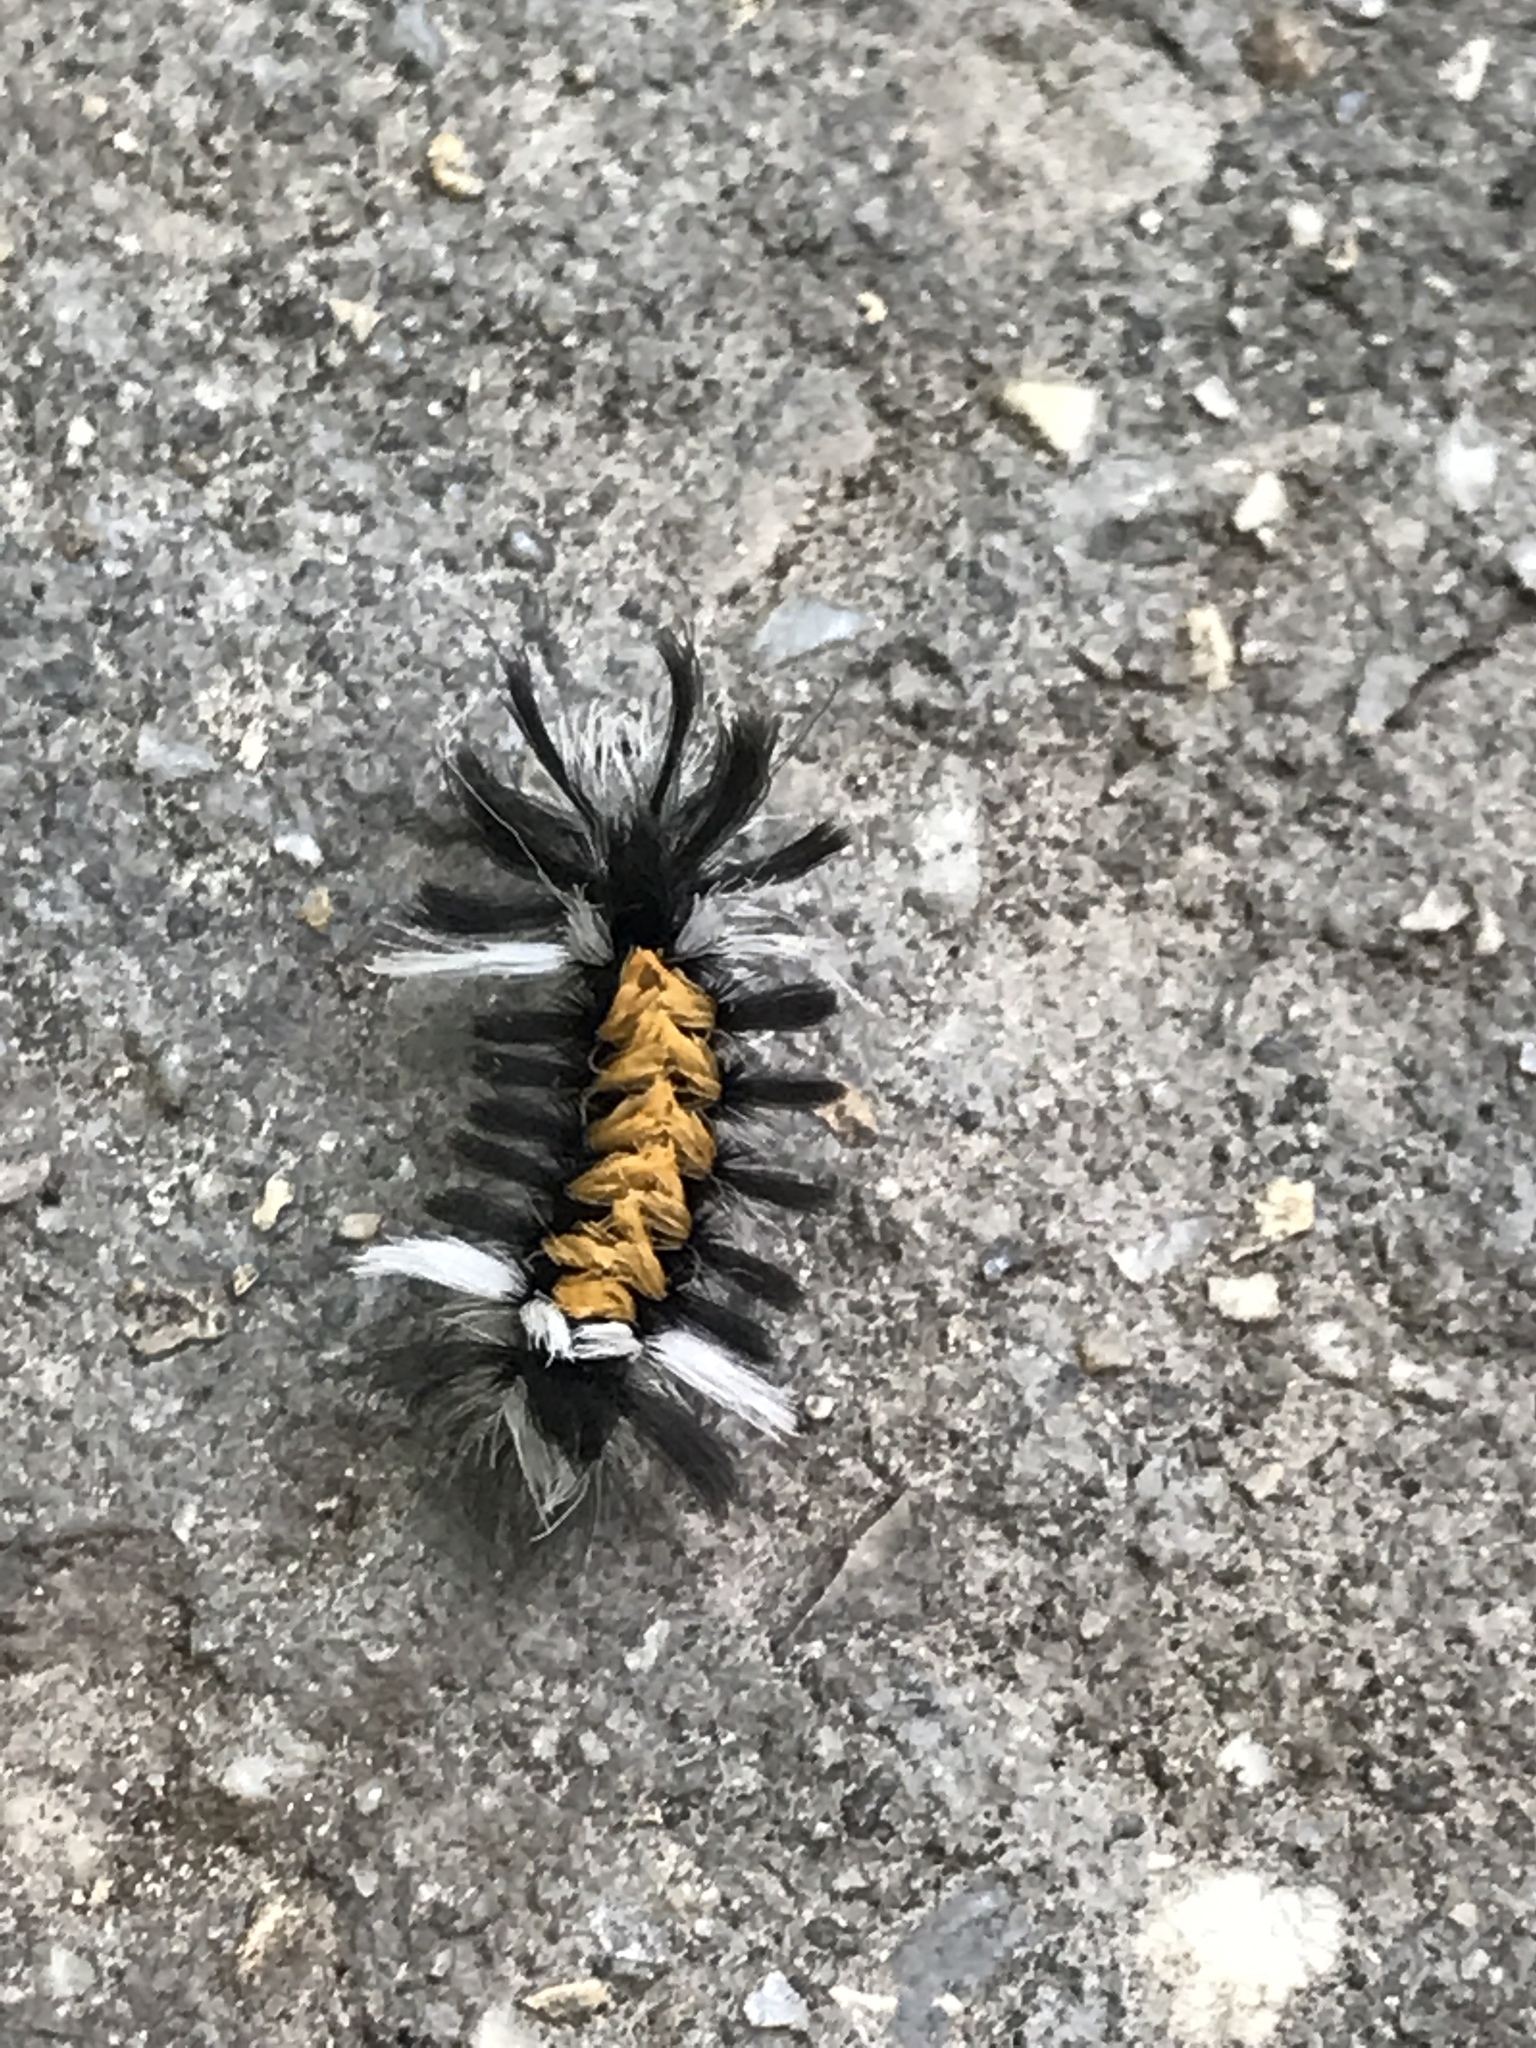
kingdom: Animalia
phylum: Arthropoda
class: Insecta
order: Lepidoptera
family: Erebidae
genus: Euchaetes
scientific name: Euchaetes egle
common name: Milkweed tussock moth
